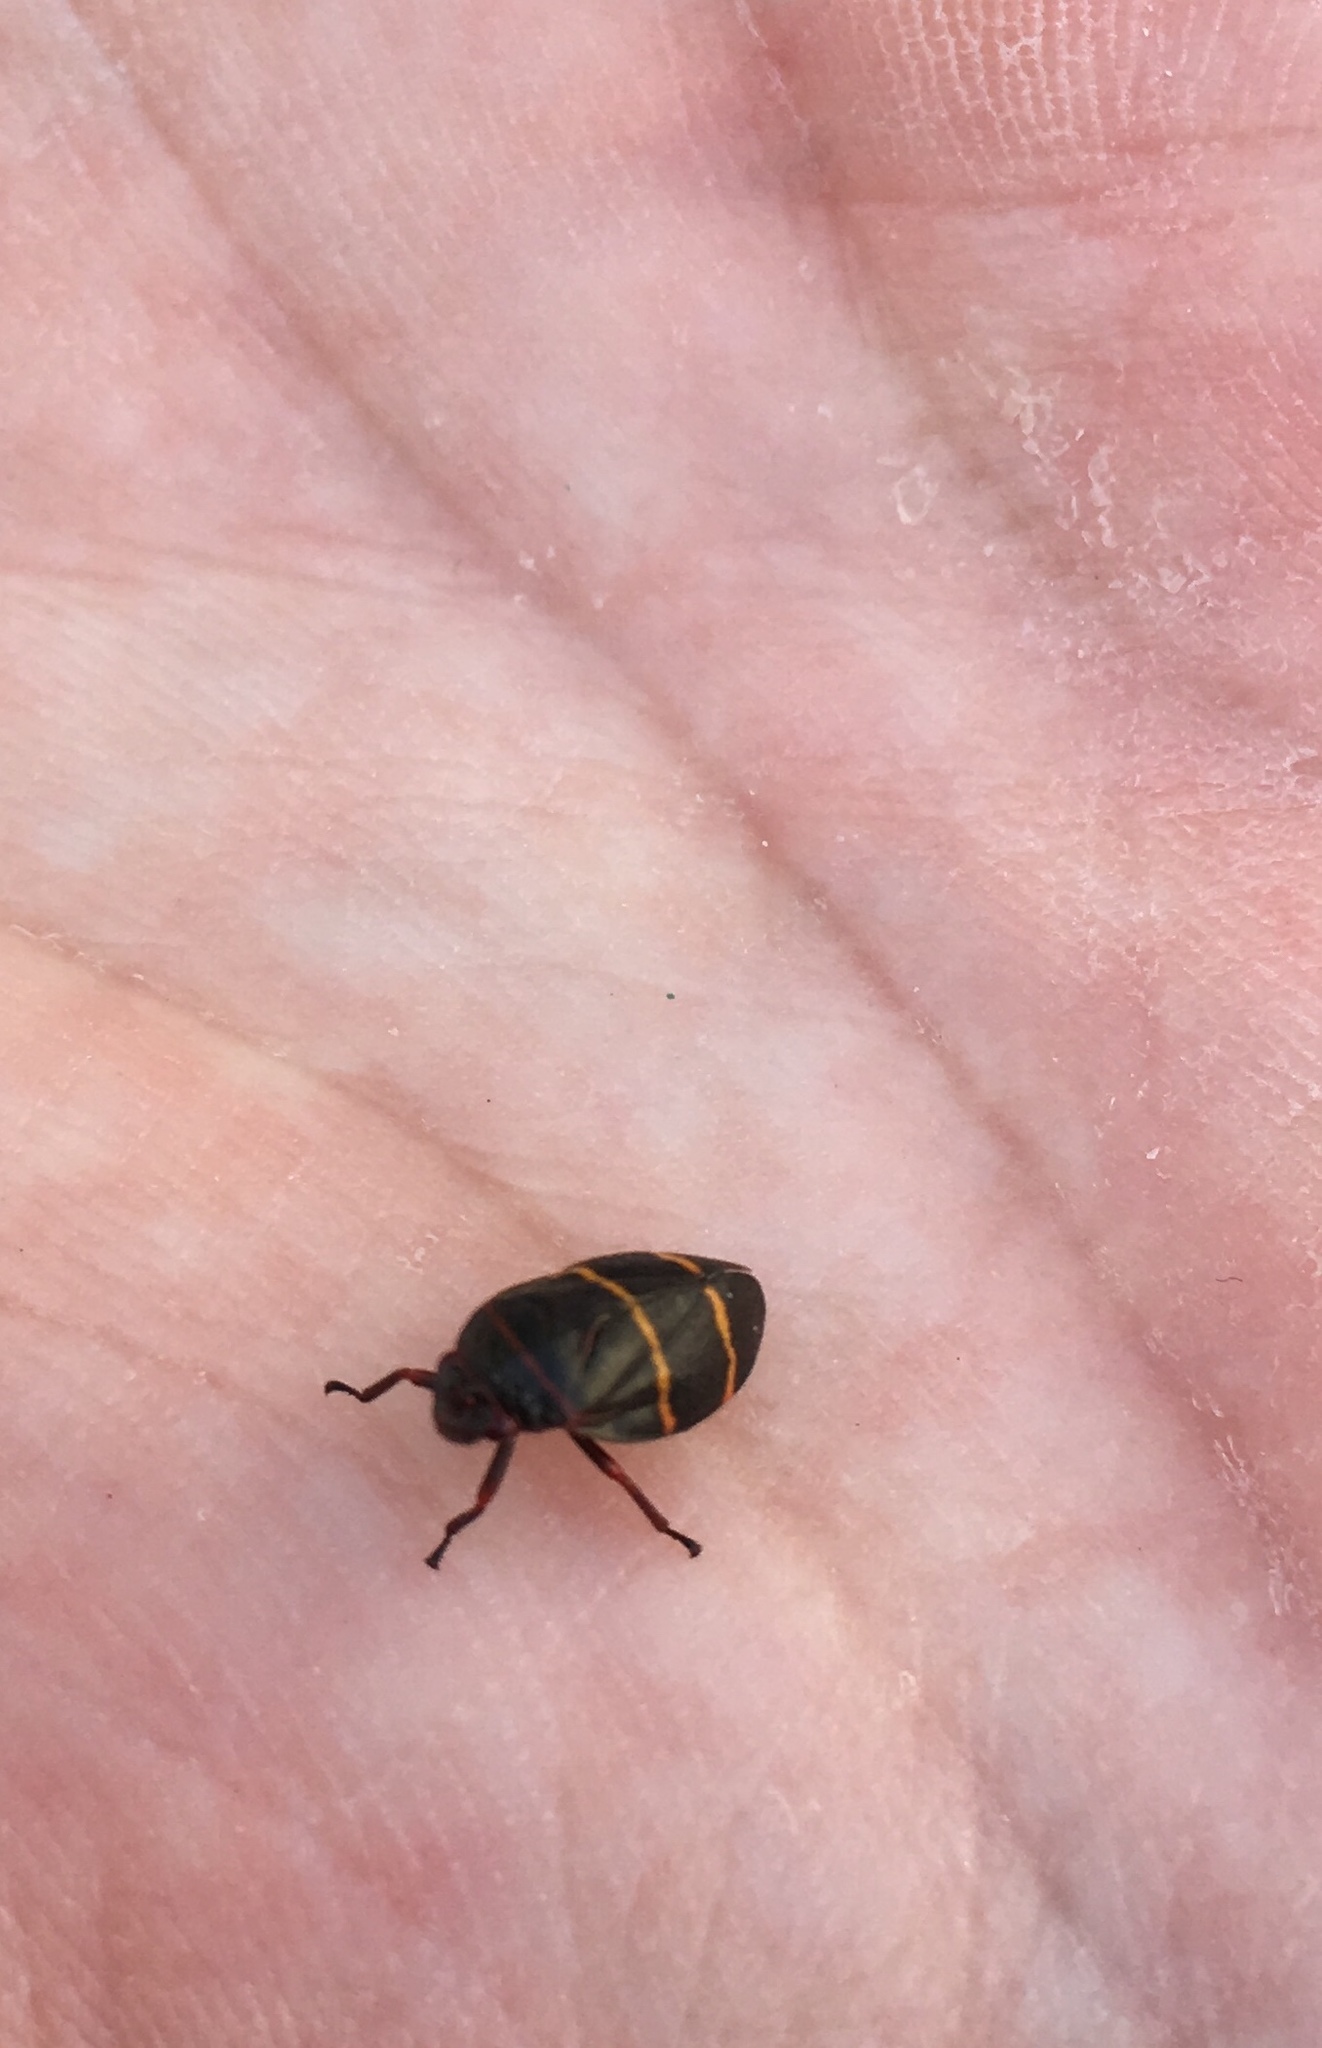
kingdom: Animalia
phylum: Arthropoda
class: Insecta
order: Hemiptera
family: Cercopidae
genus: Prosapia
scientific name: Prosapia bicincta
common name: Twolined spittlebug
